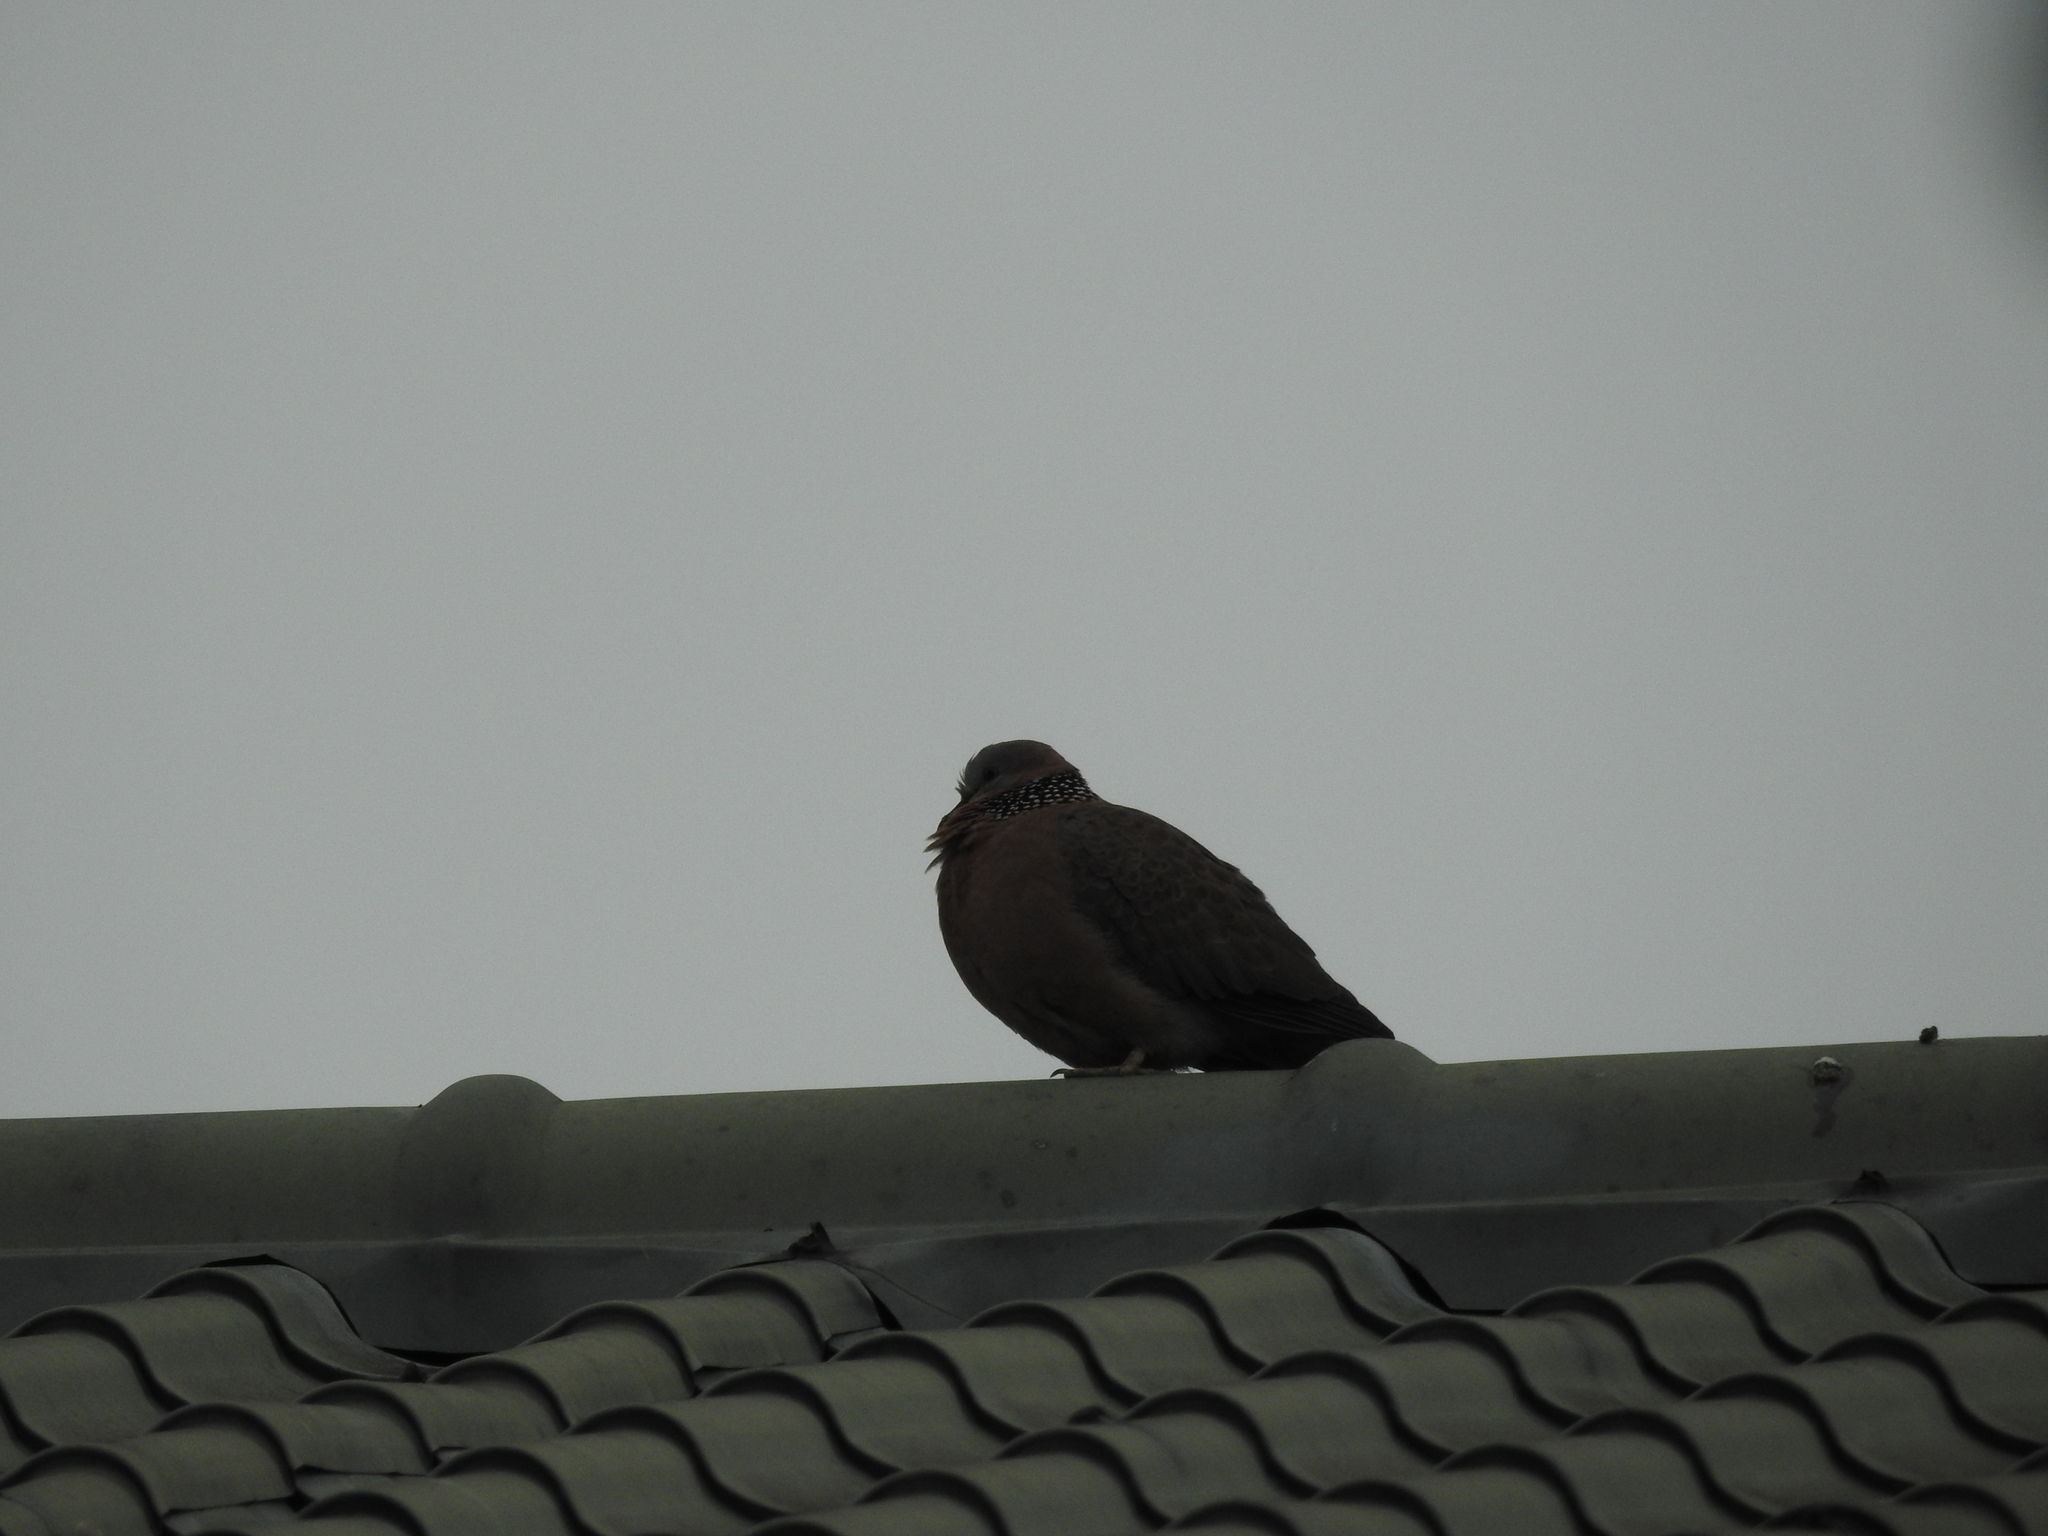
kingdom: Animalia
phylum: Chordata
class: Aves
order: Columbiformes
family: Columbidae
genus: Spilopelia
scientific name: Spilopelia chinensis
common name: Spotted dove
